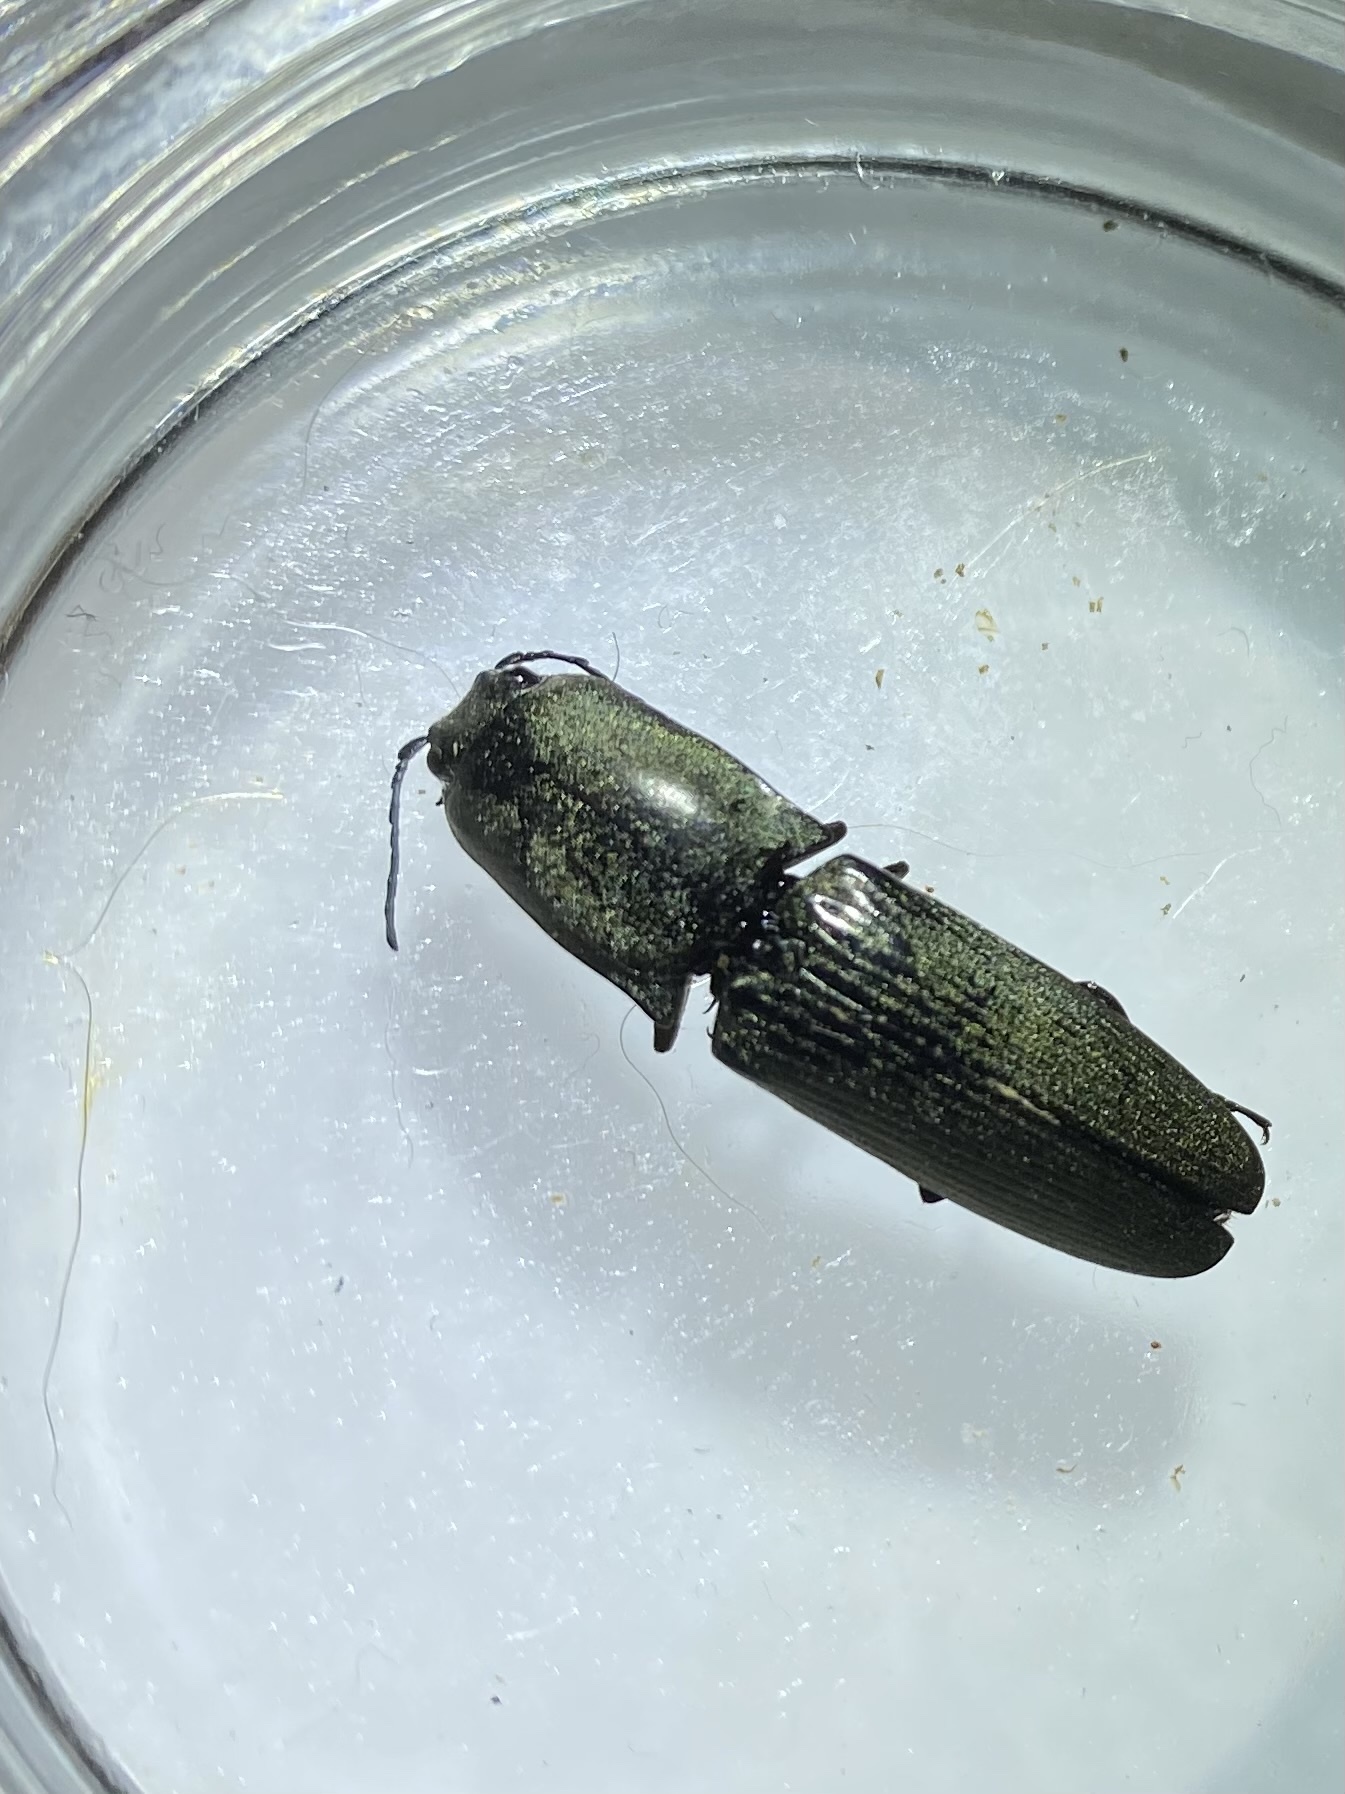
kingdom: Animalia
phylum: Arthropoda
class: Insecta
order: Coleoptera
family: Elateridae
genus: Chalcolepidius
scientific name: Chalcolepidius
